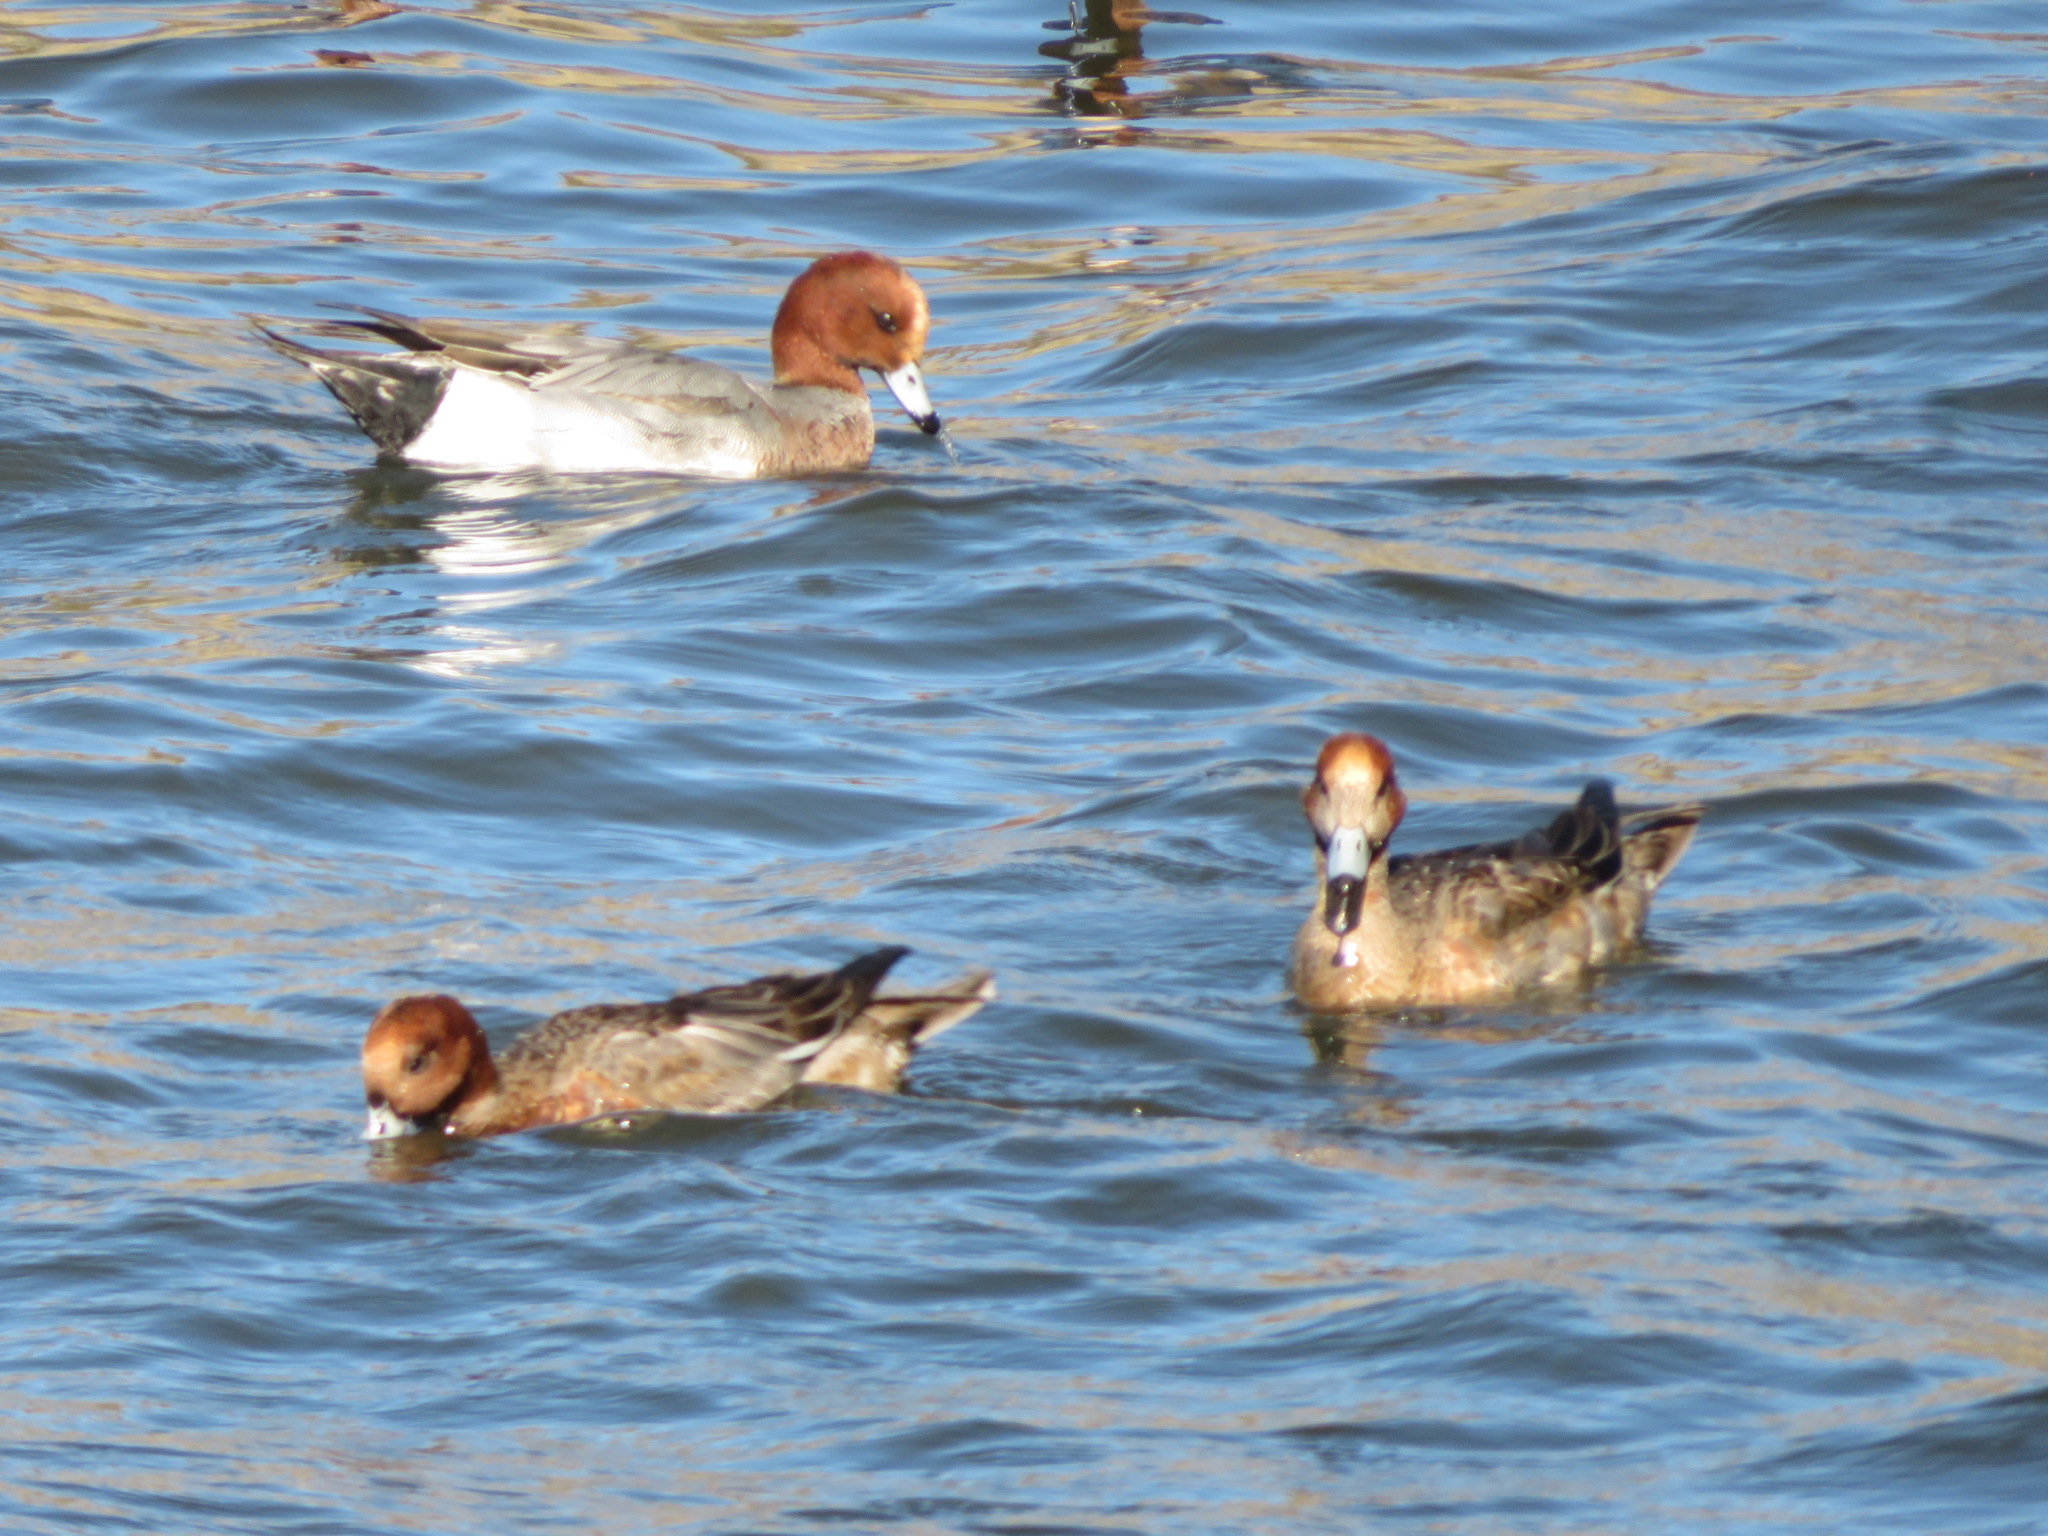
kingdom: Animalia
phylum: Chordata
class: Aves
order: Anseriformes
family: Anatidae
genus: Mareca
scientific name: Mareca penelope
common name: Eurasian wigeon
